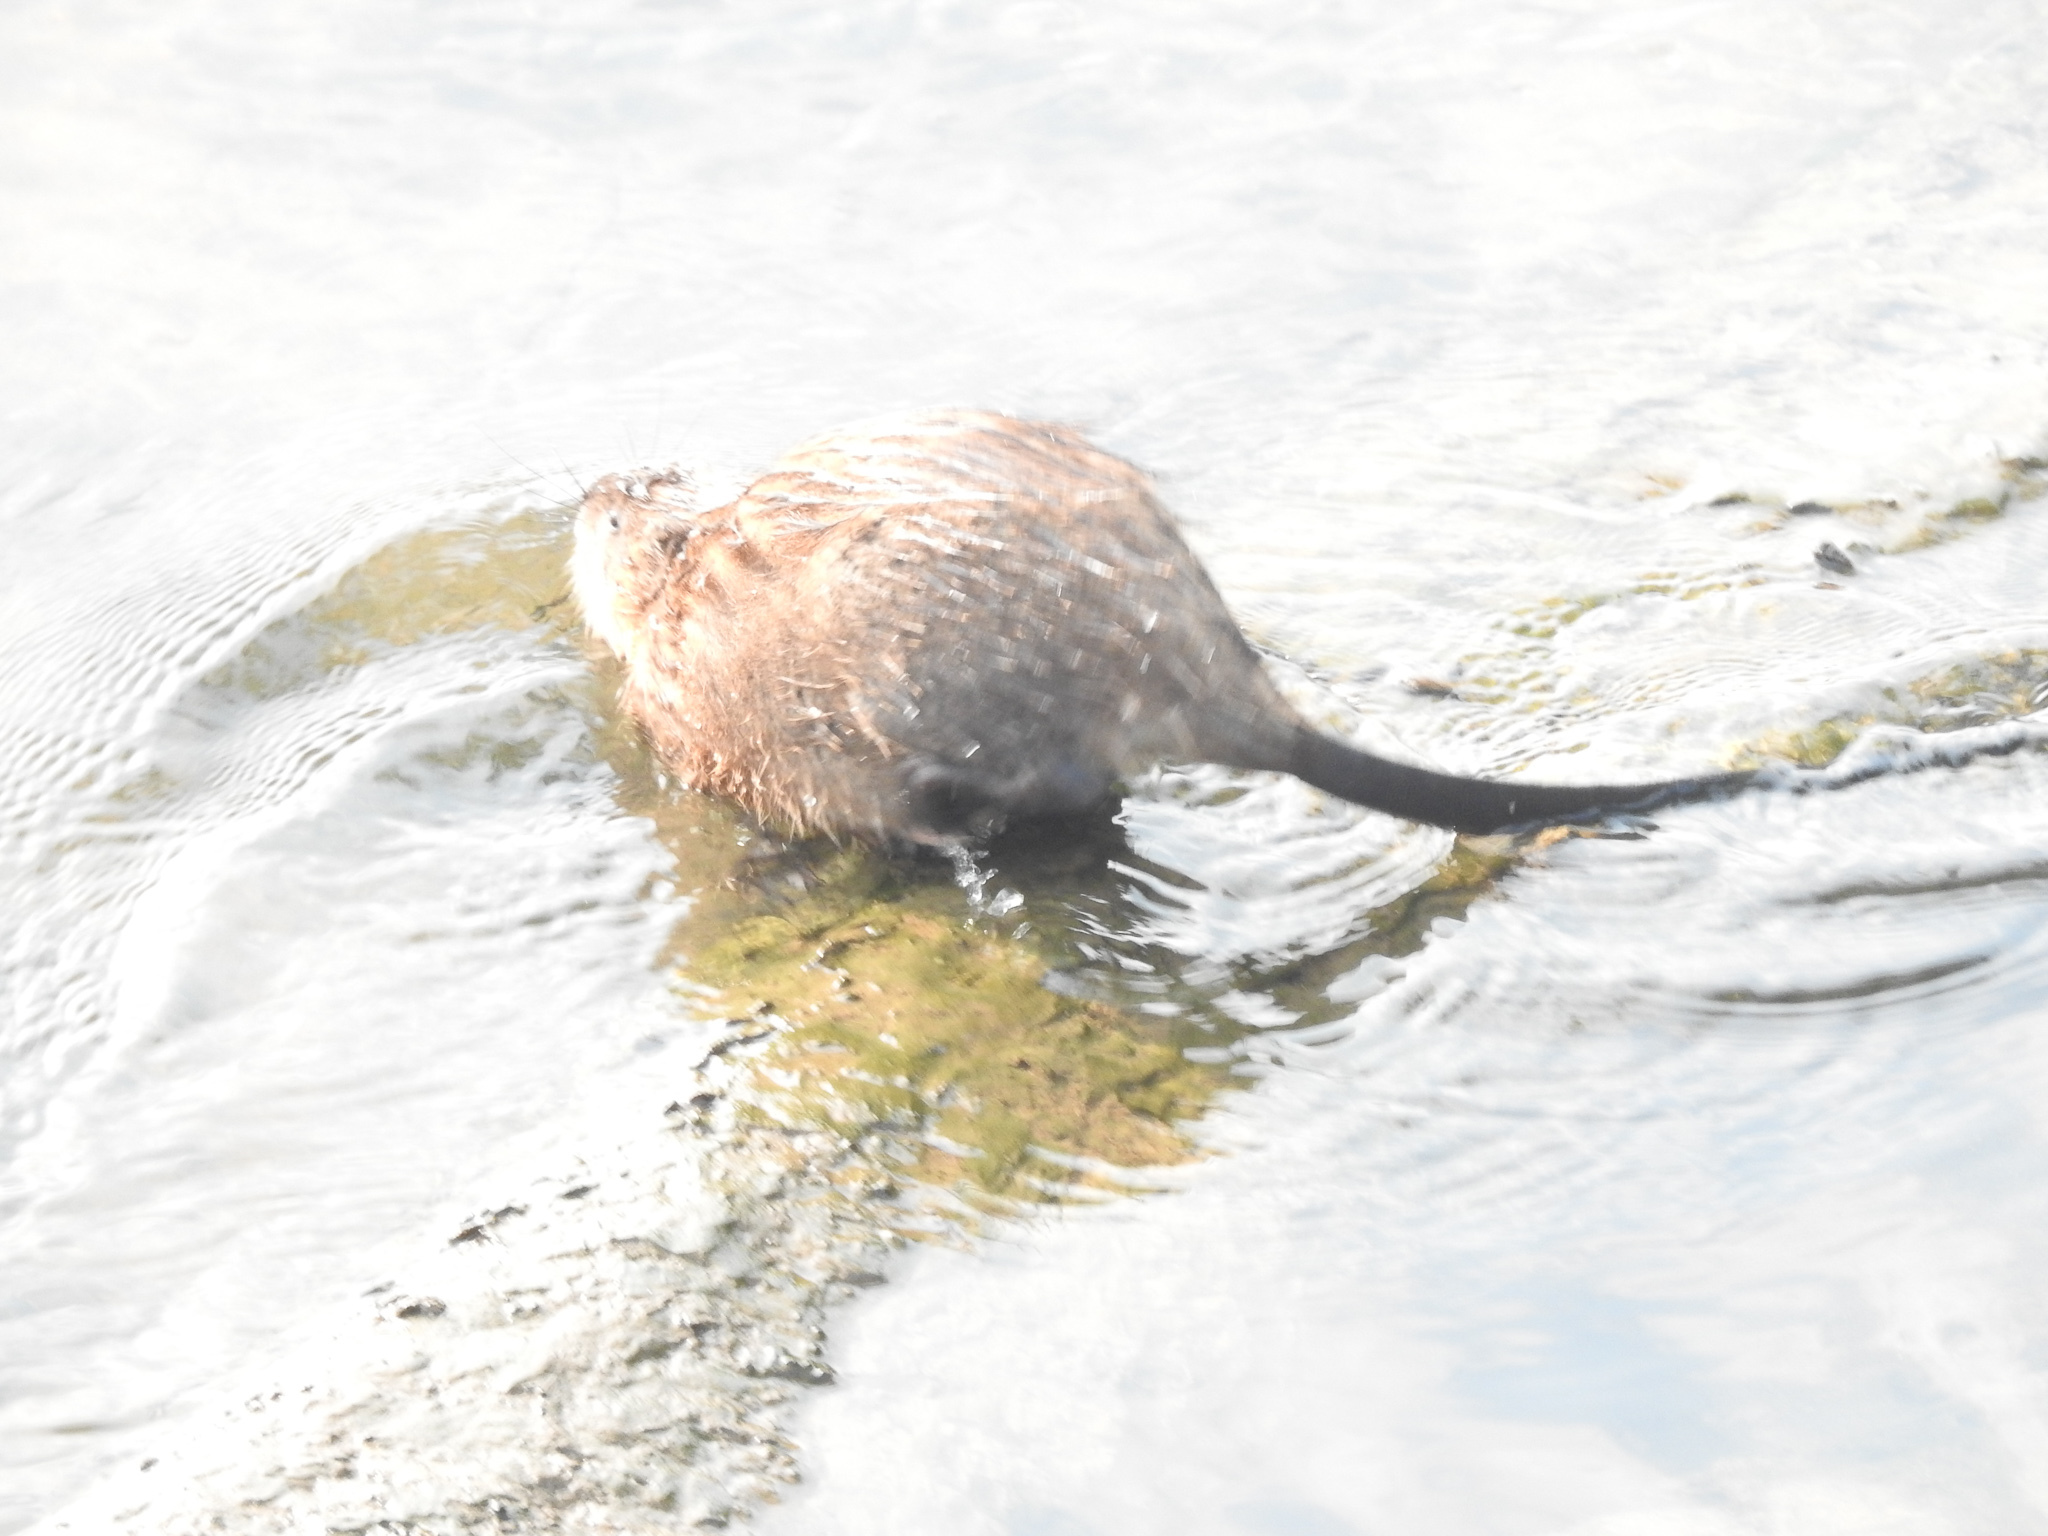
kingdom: Animalia
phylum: Chordata
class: Mammalia
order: Rodentia
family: Cricetidae
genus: Ondatra
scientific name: Ondatra zibethicus
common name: Muskrat
